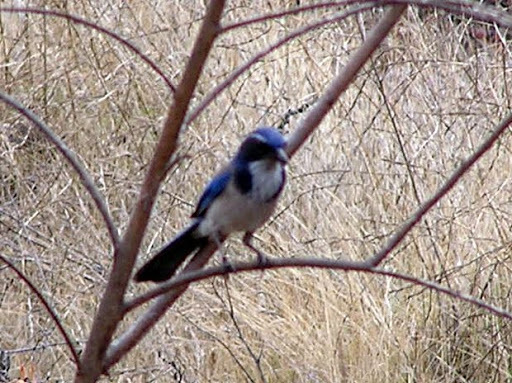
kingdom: Animalia
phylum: Chordata
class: Aves
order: Passeriformes
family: Corvidae
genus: Aphelocoma
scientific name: Aphelocoma californica
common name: California scrub-jay
